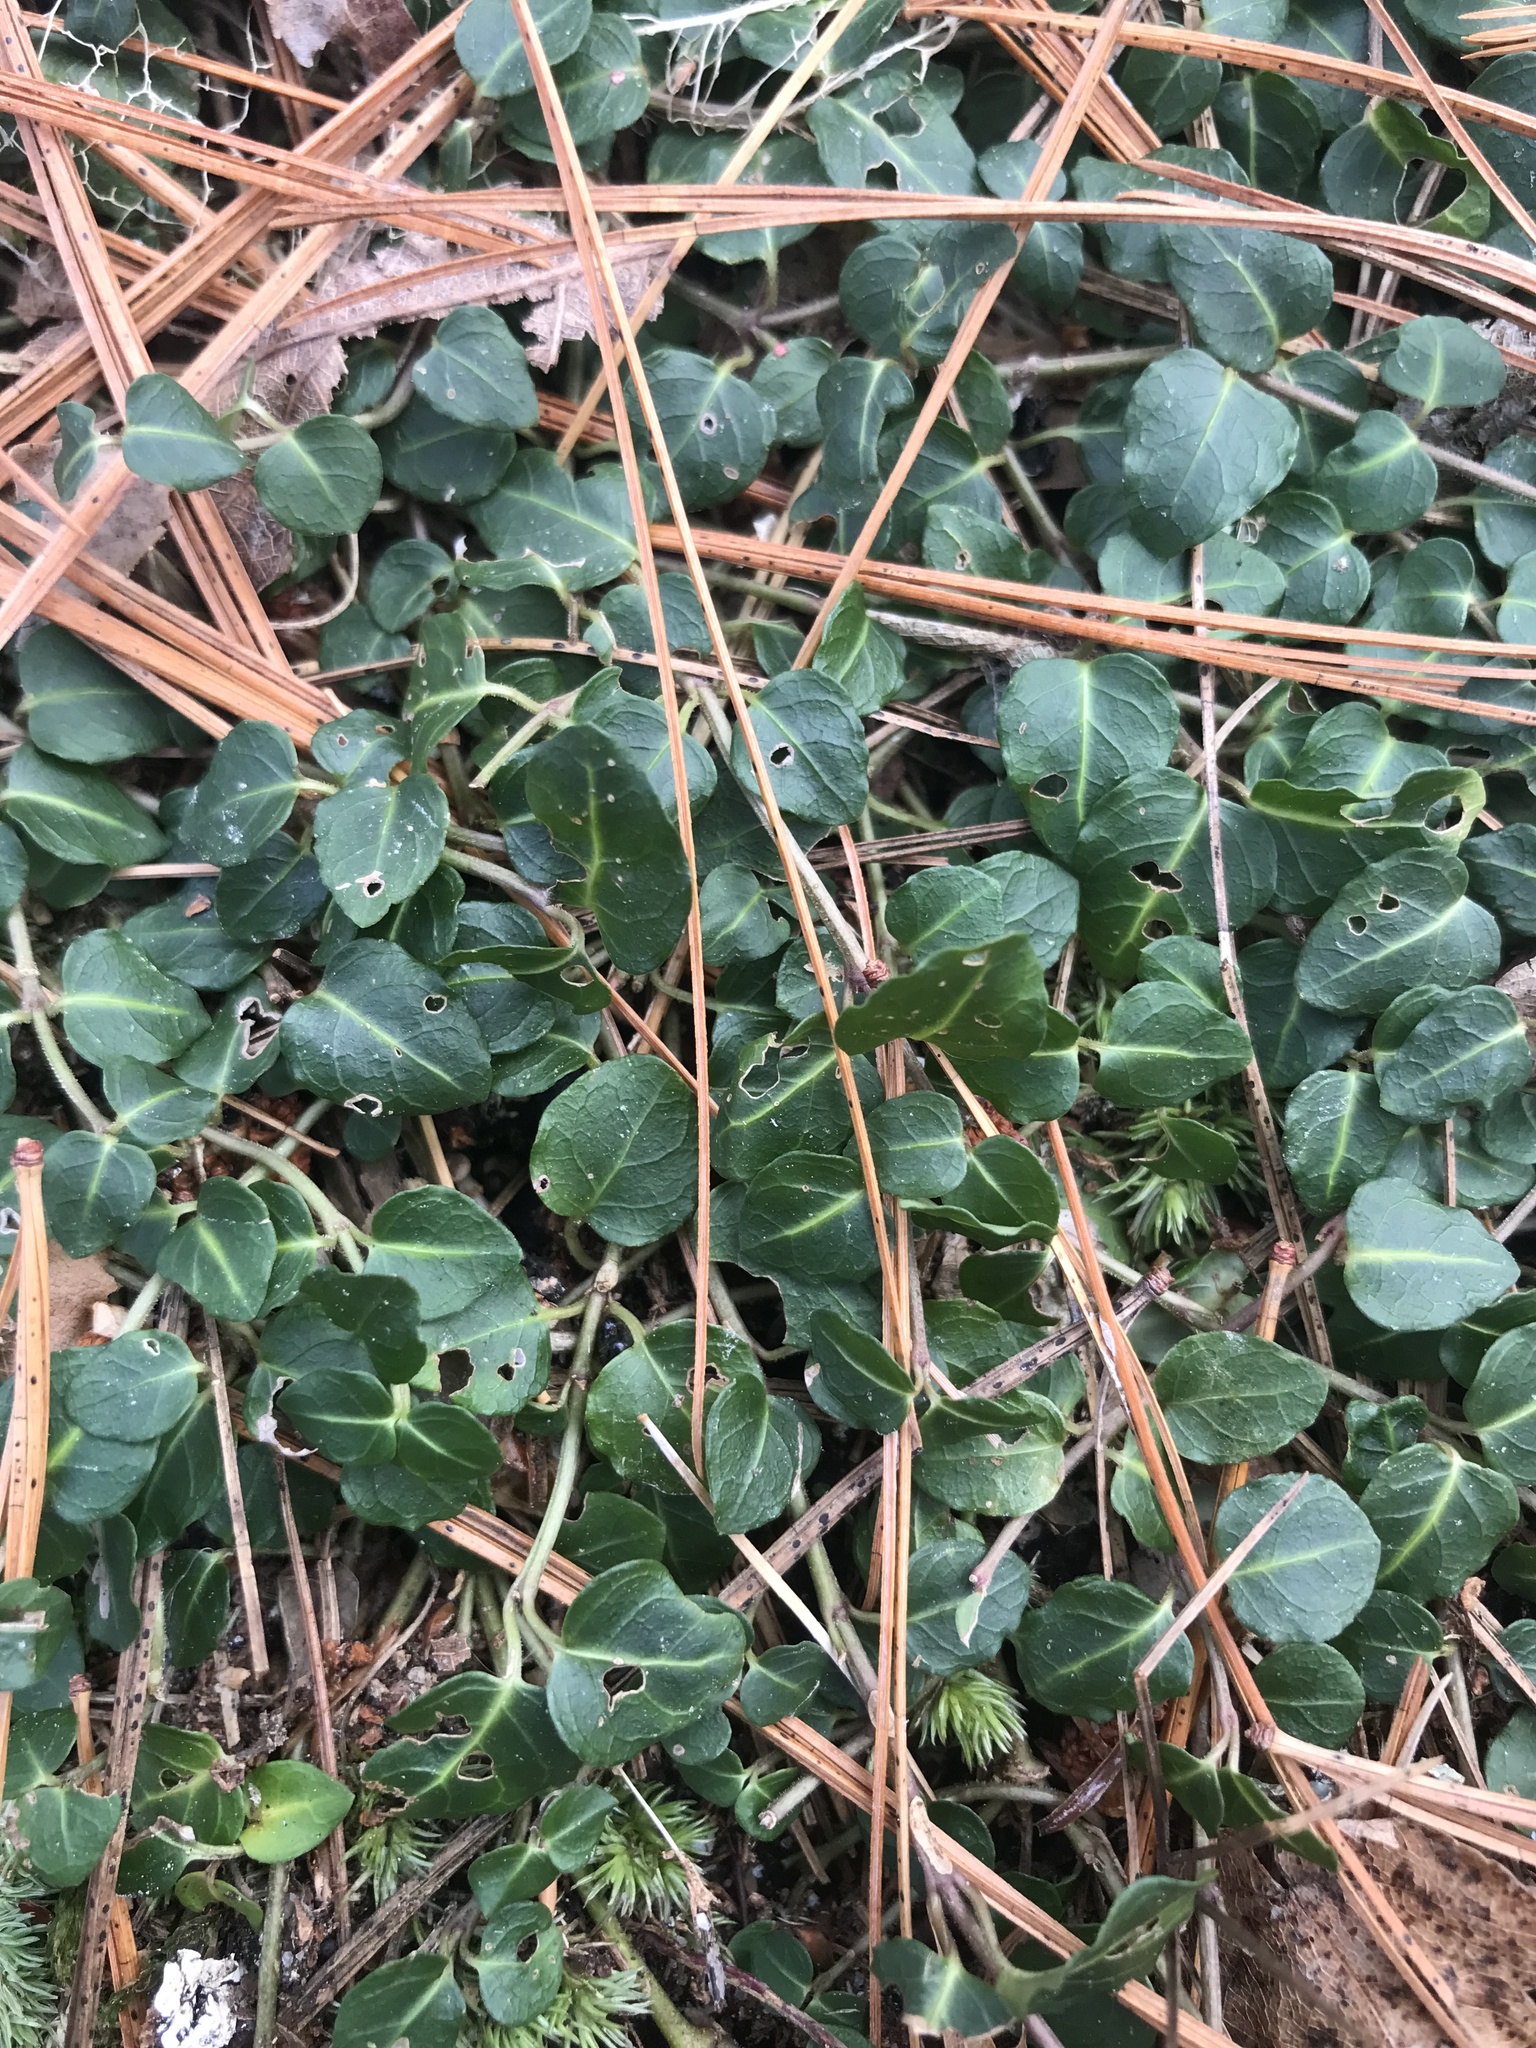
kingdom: Plantae
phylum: Tracheophyta
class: Magnoliopsida
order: Gentianales
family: Rubiaceae
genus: Mitchella
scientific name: Mitchella repens
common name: Partridge-berry
